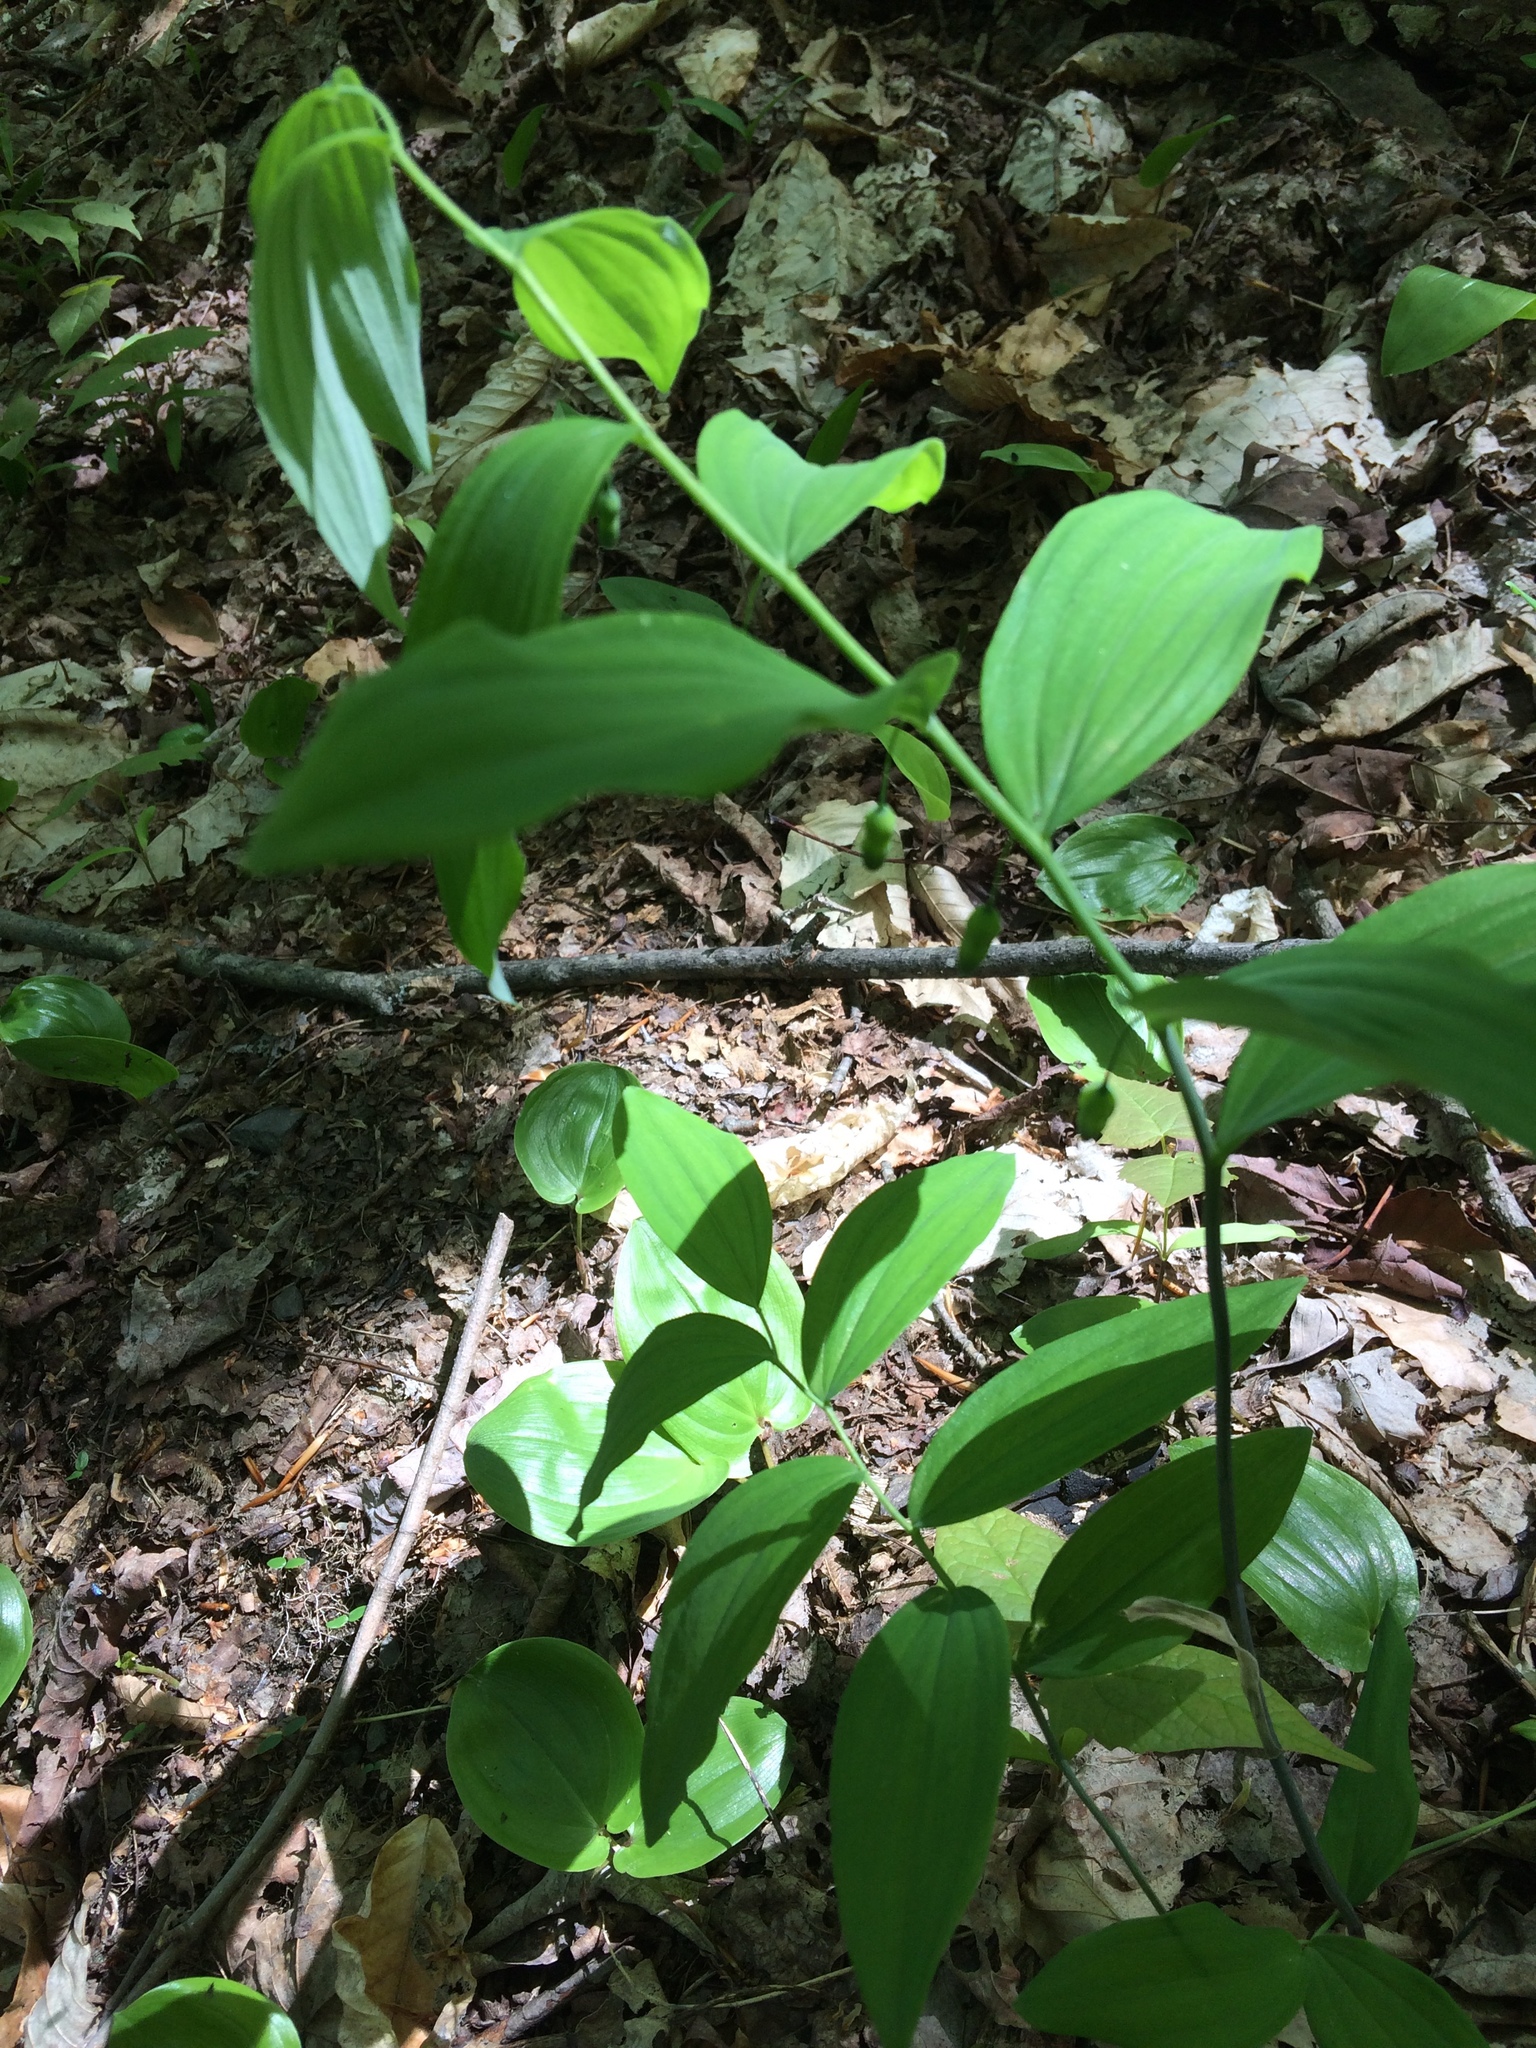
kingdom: Plantae
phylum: Tracheophyta
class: Liliopsida
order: Asparagales
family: Asparagaceae
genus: Polygonatum
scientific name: Polygonatum pubescens
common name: Downy solomon's seal
